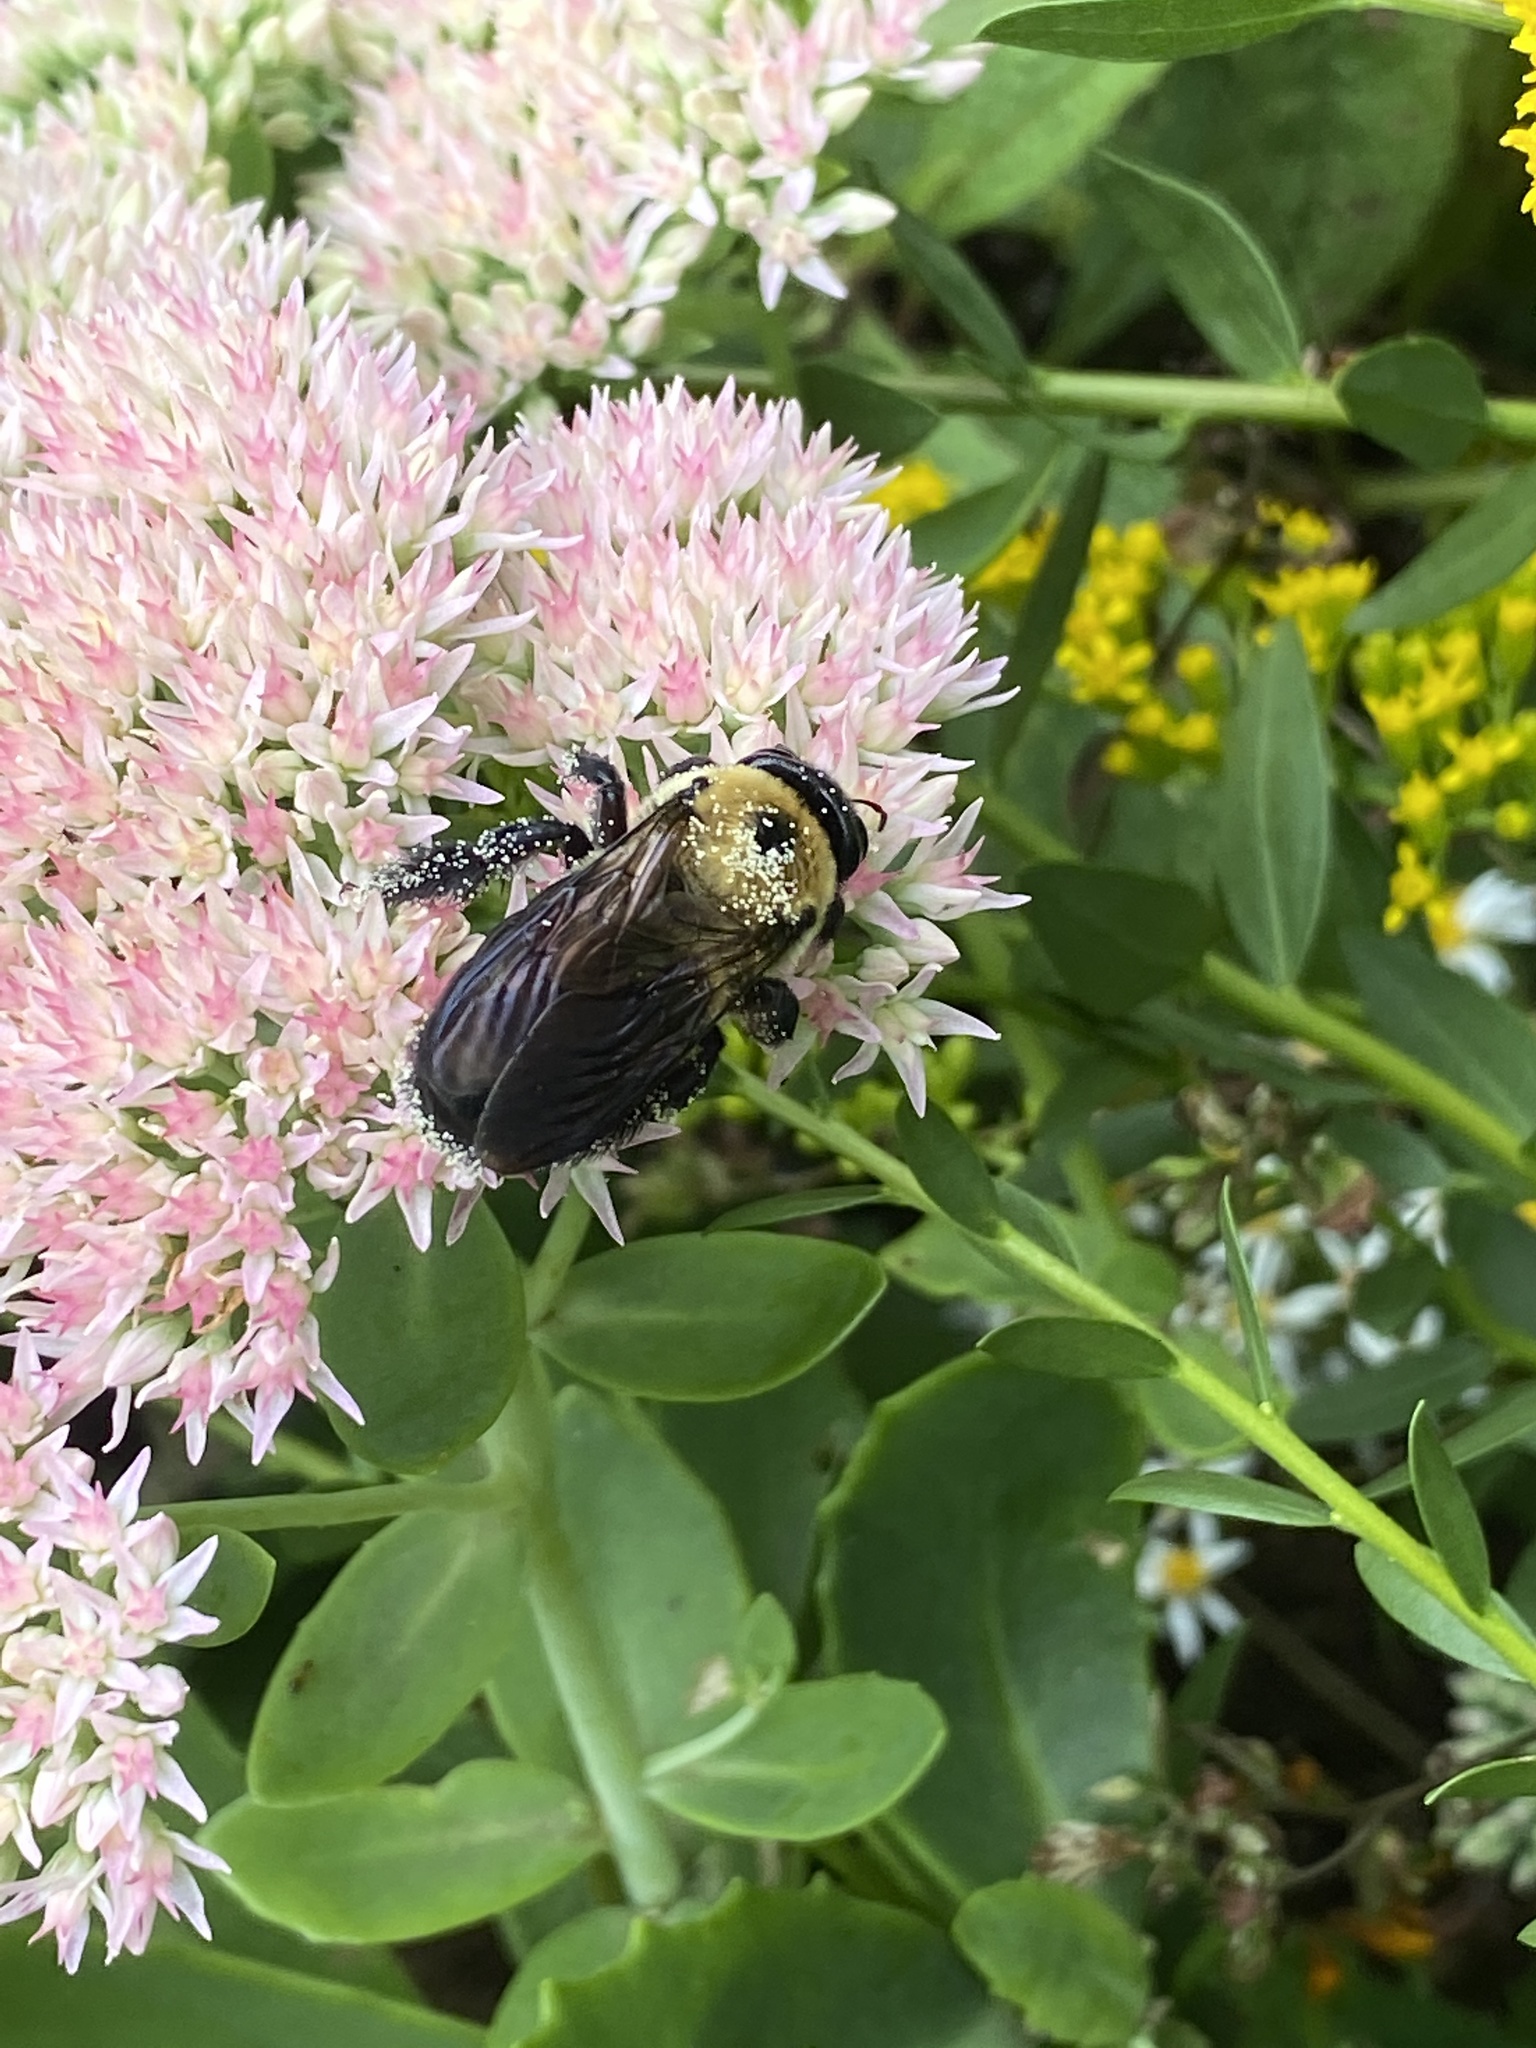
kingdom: Animalia
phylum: Arthropoda
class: Insecta
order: Hymenoptera
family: Apidae
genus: Xylocopa
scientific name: Xylocopa virginica
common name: Carpenter bee
